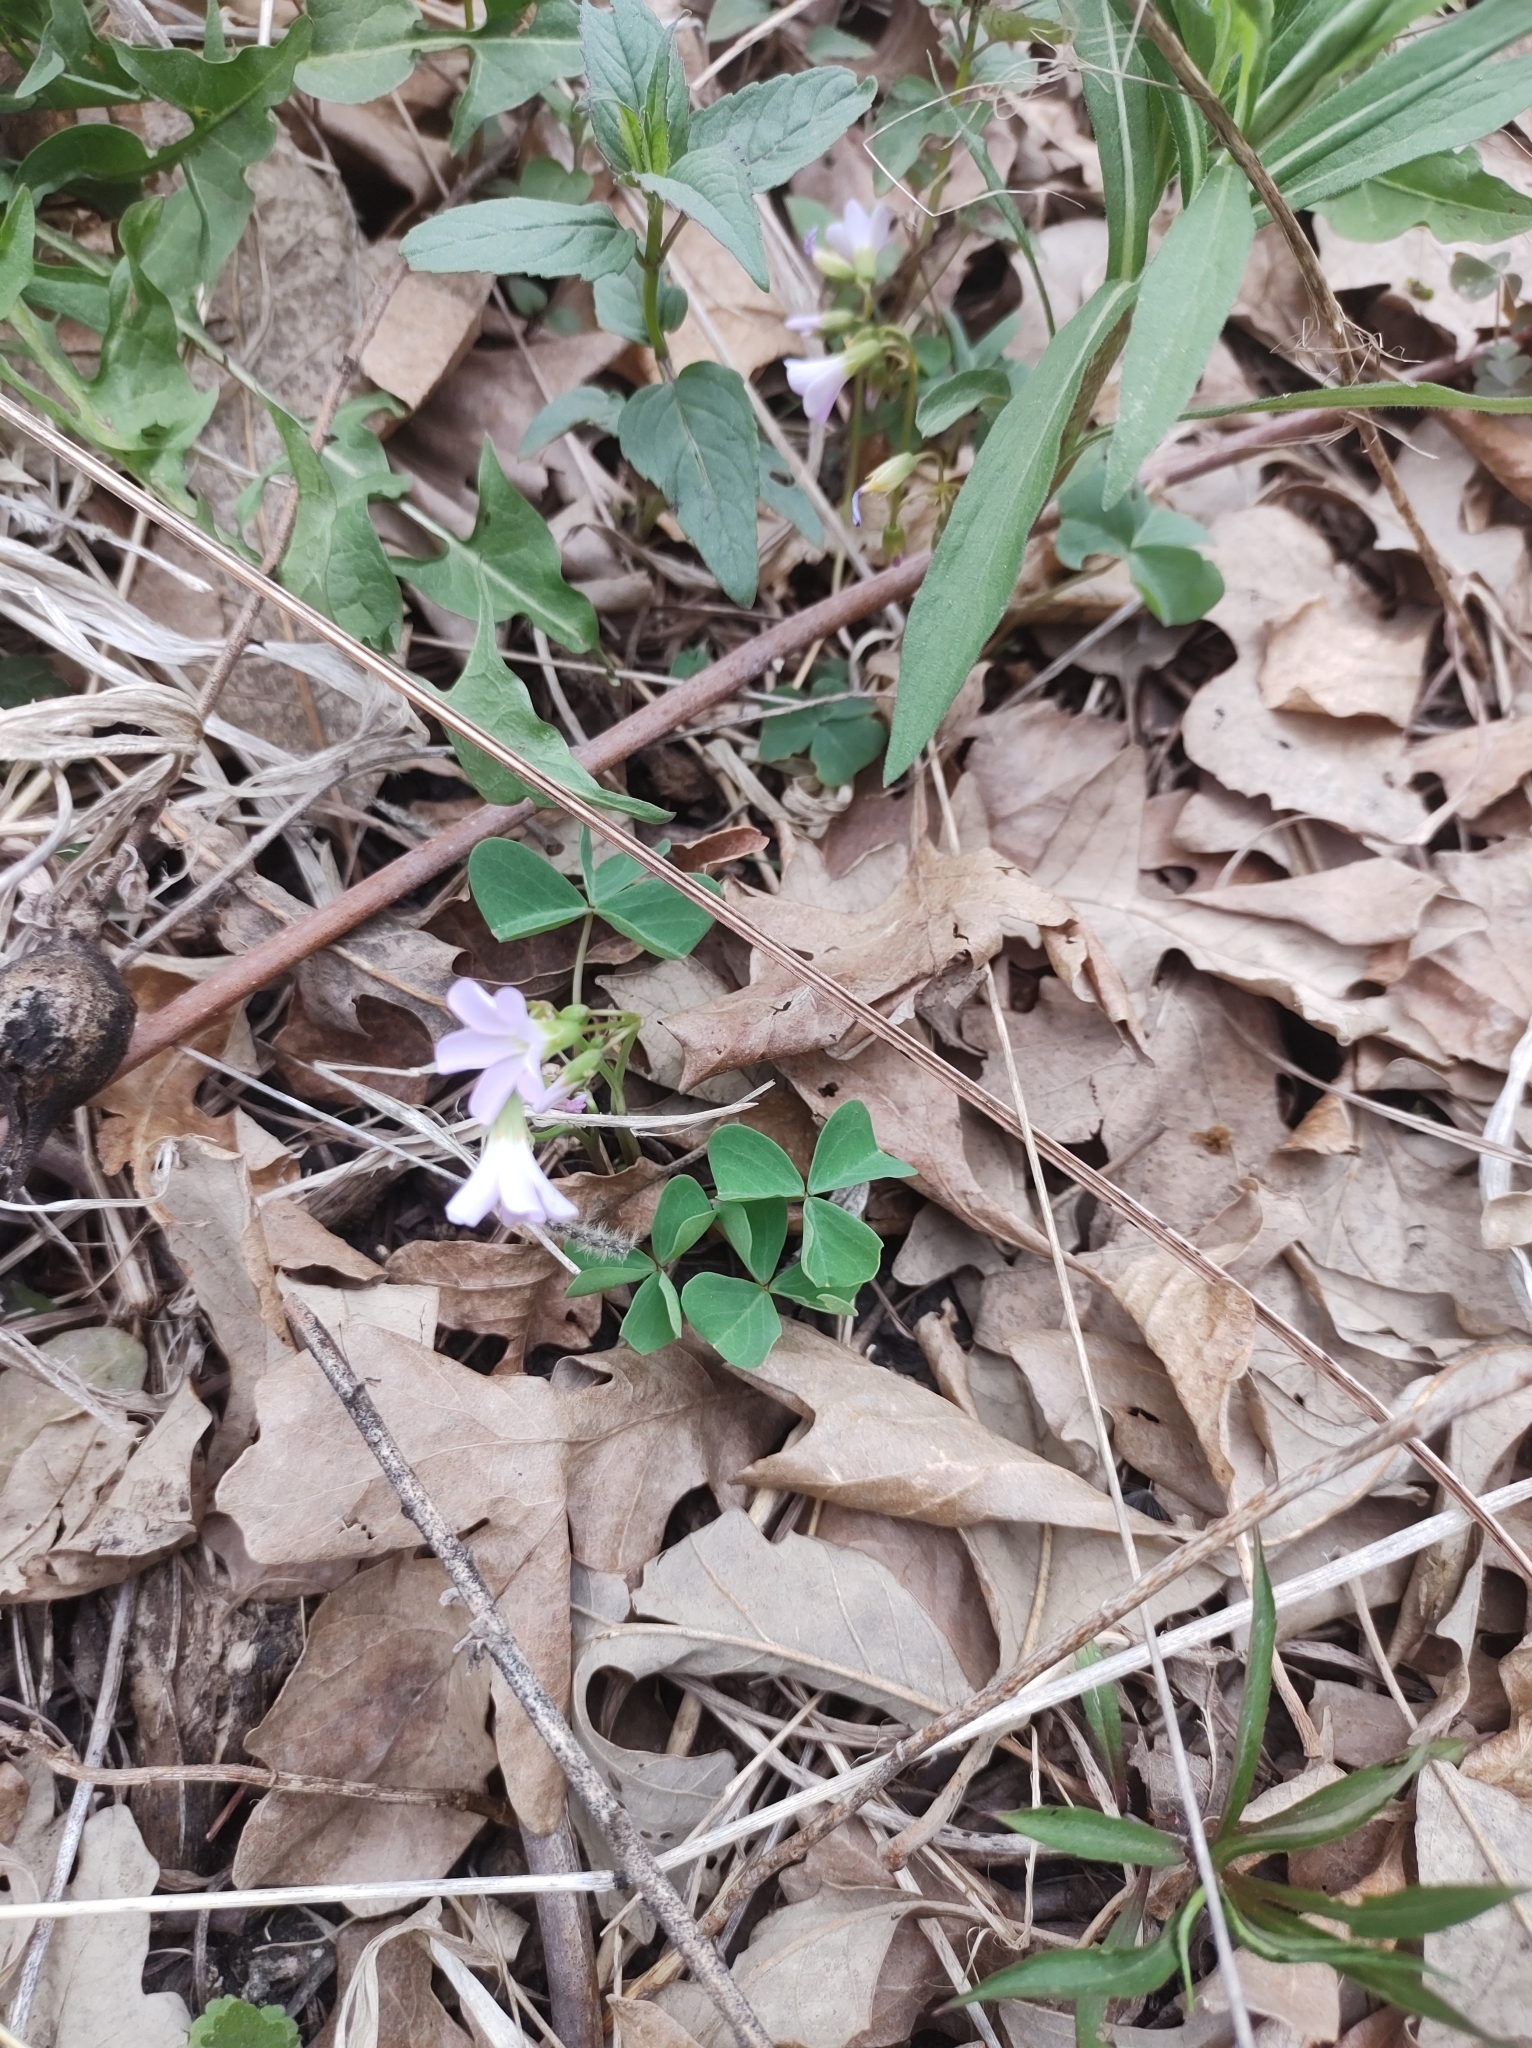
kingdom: Plantae
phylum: Tracheophyta
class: Magnoliopsida
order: Oxalidales
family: Oxalidaceae
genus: Oxalis
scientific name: Oxalis violacea
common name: Violet wood-sorrel
